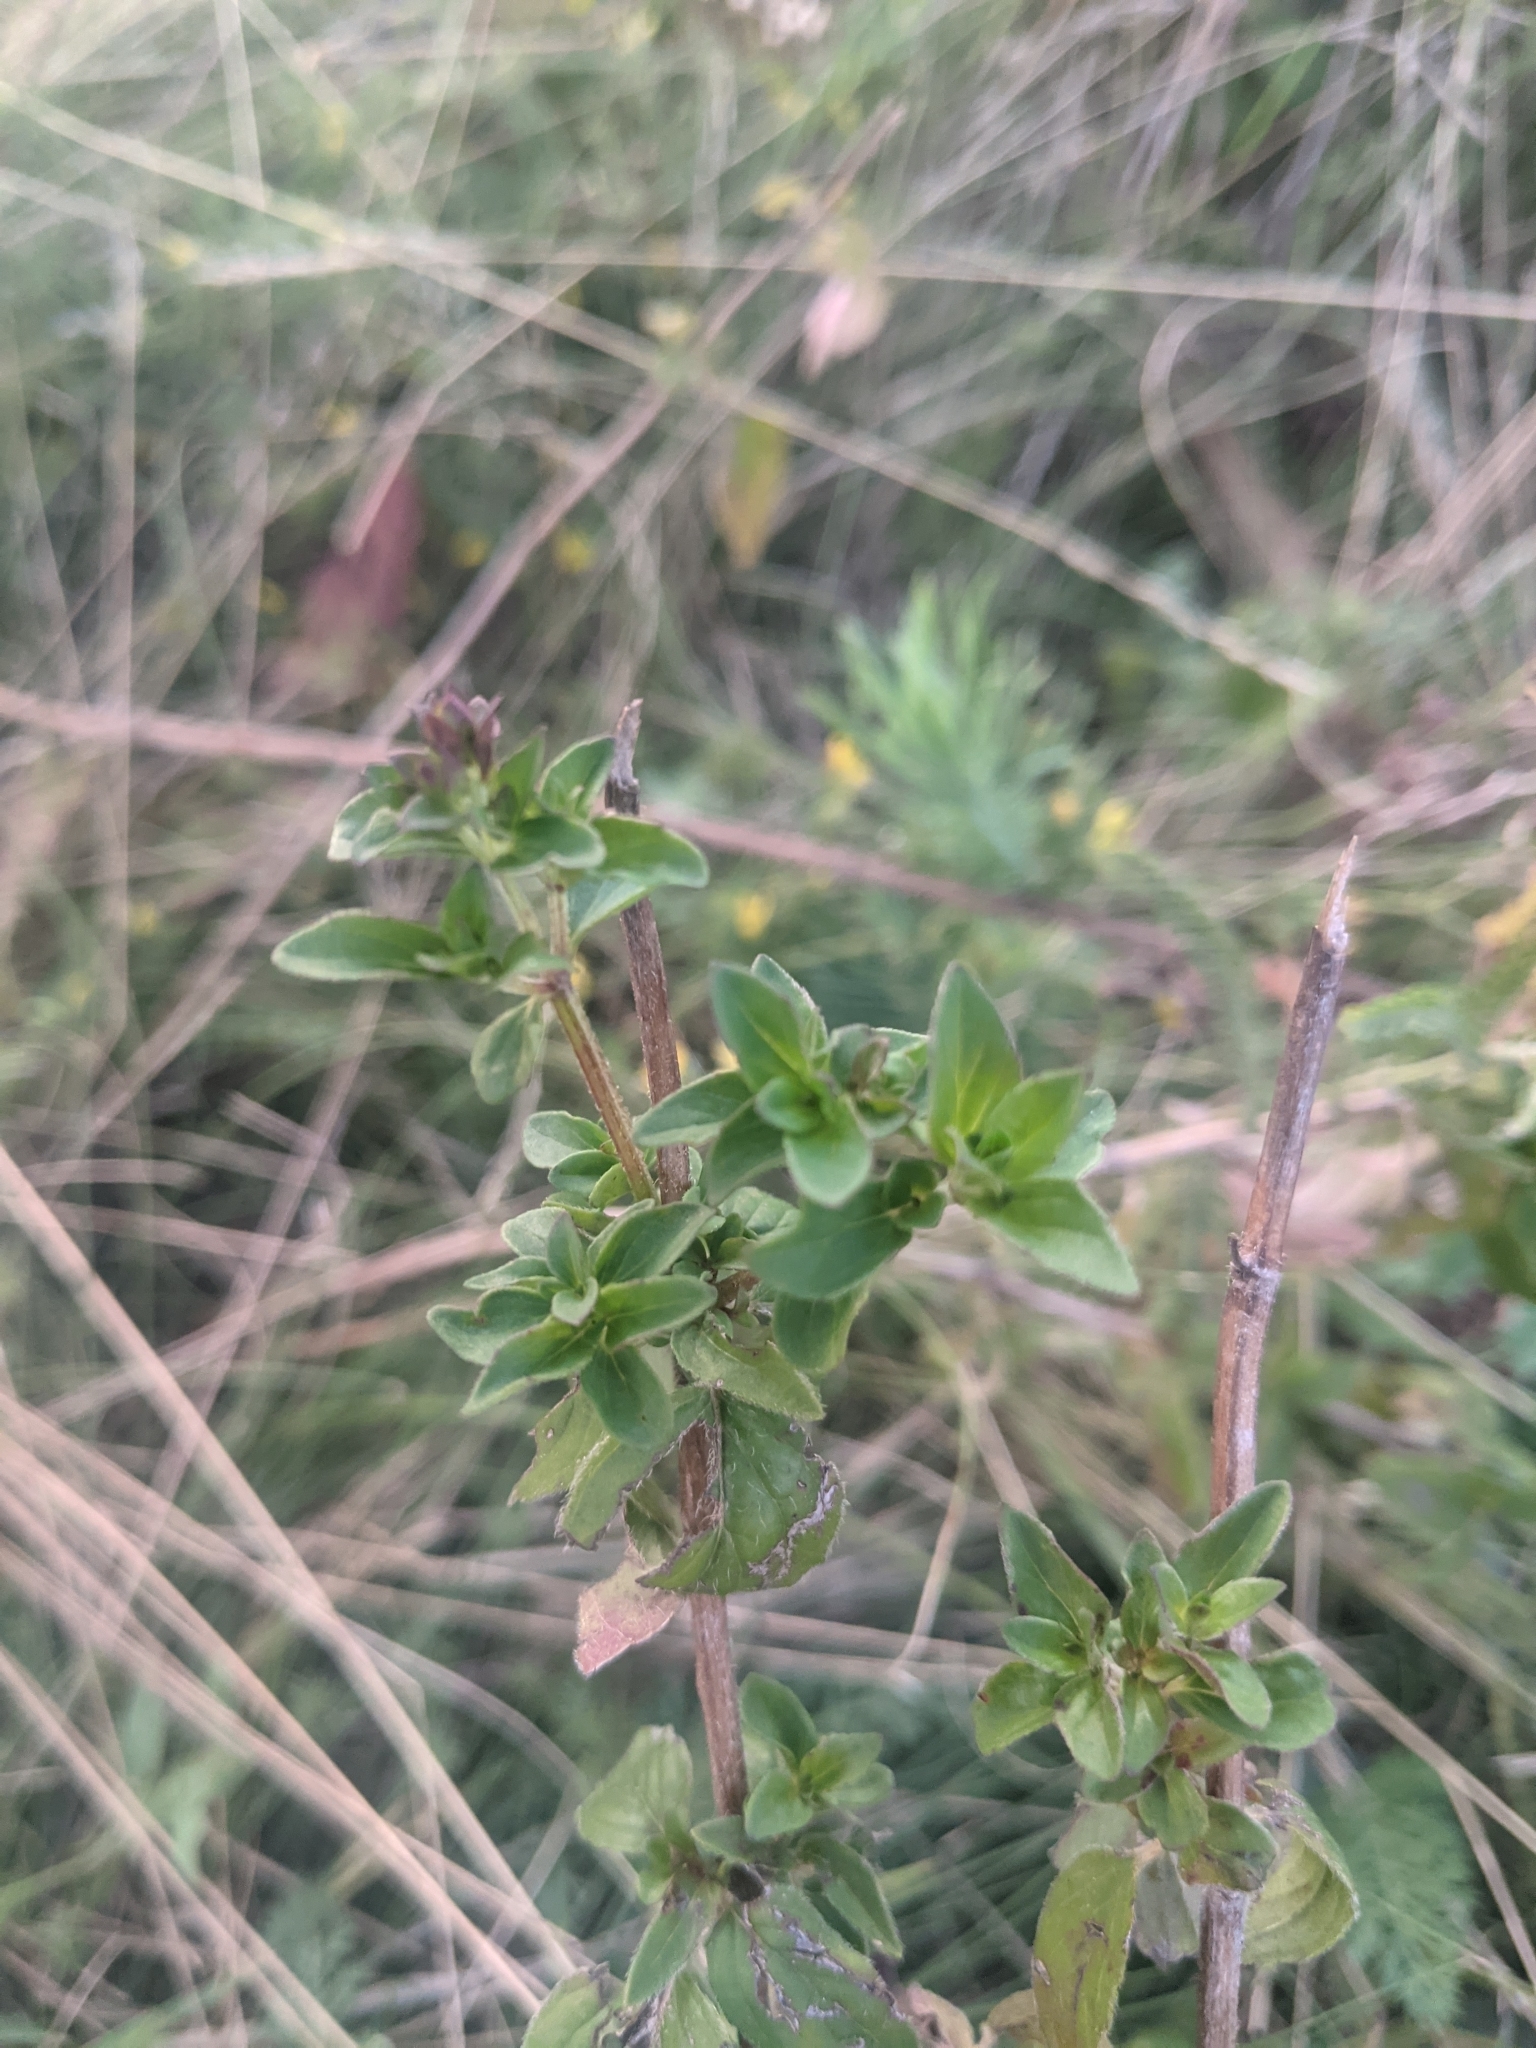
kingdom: Plantae
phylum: Tracheophyta
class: Magnoliopsida
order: Lamiales
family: Lamiaceae
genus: Origanum
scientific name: Origanum vulgare
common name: Wild marjoram
